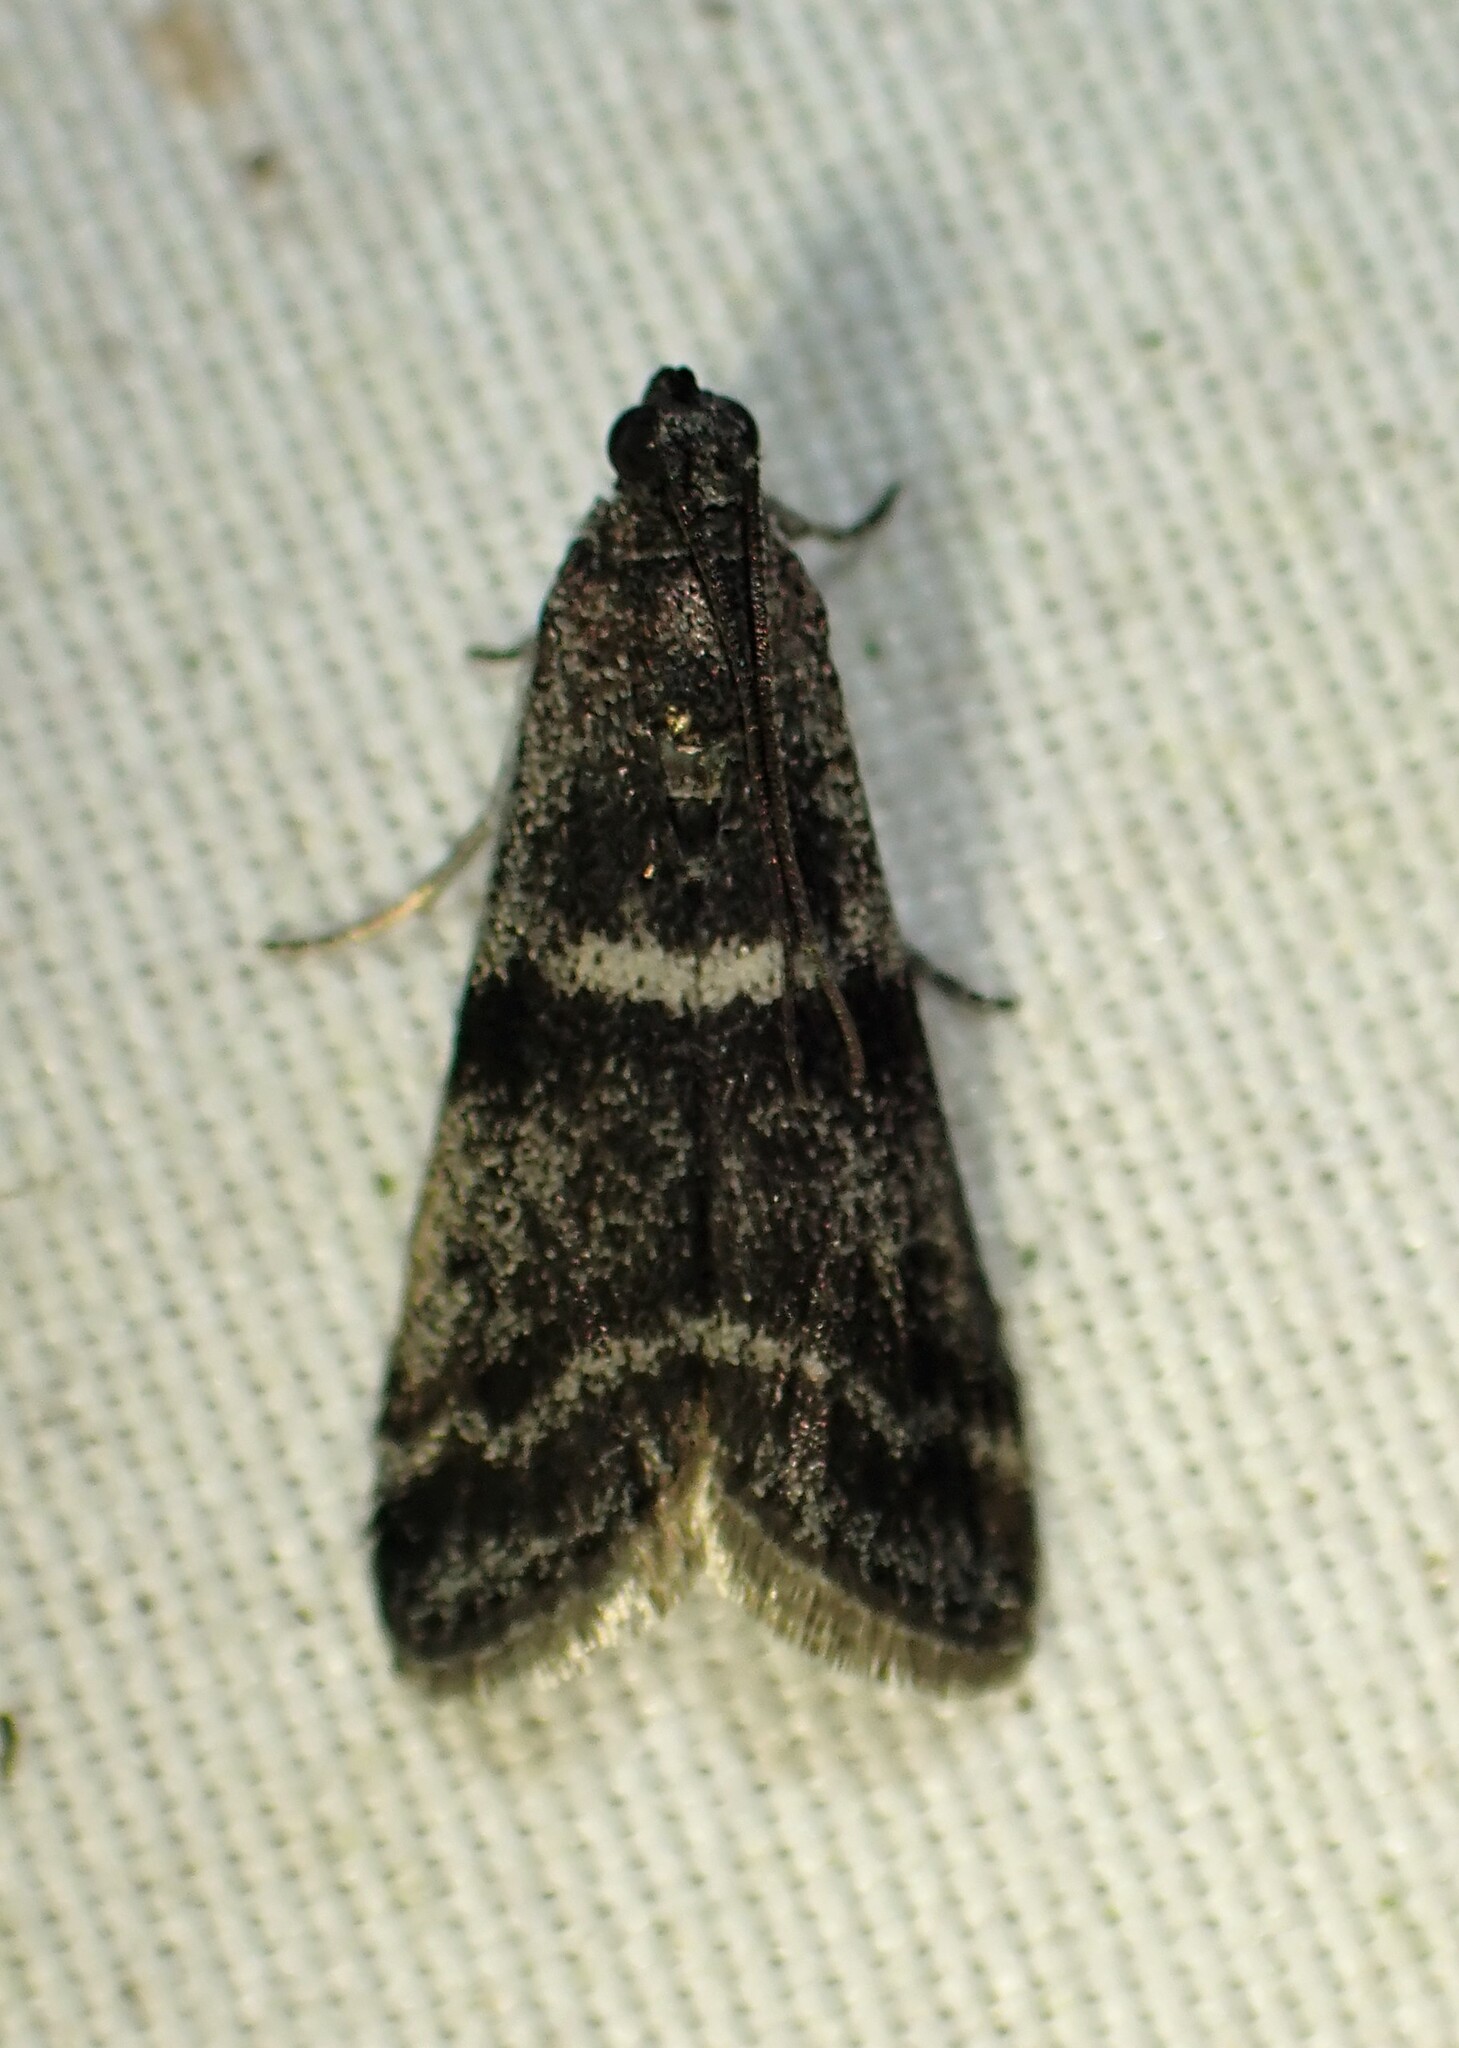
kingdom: Animalia
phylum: Arthropoda
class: Insecta
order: Lepidoptera
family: Pyralidae
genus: Apomyelois
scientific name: Apomyelois bistriatella
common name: Heath knot-horn
